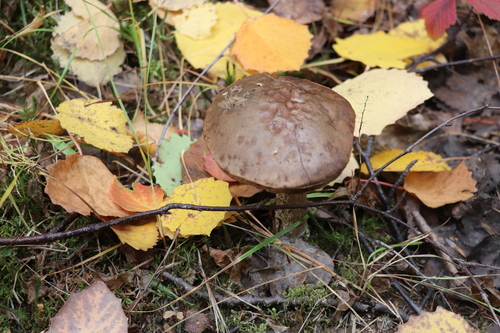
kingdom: Fungi
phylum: Basidiomycota
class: Agaricomycetes
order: Boletales
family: Boletaceae
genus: Leccinum
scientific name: Leccinum
